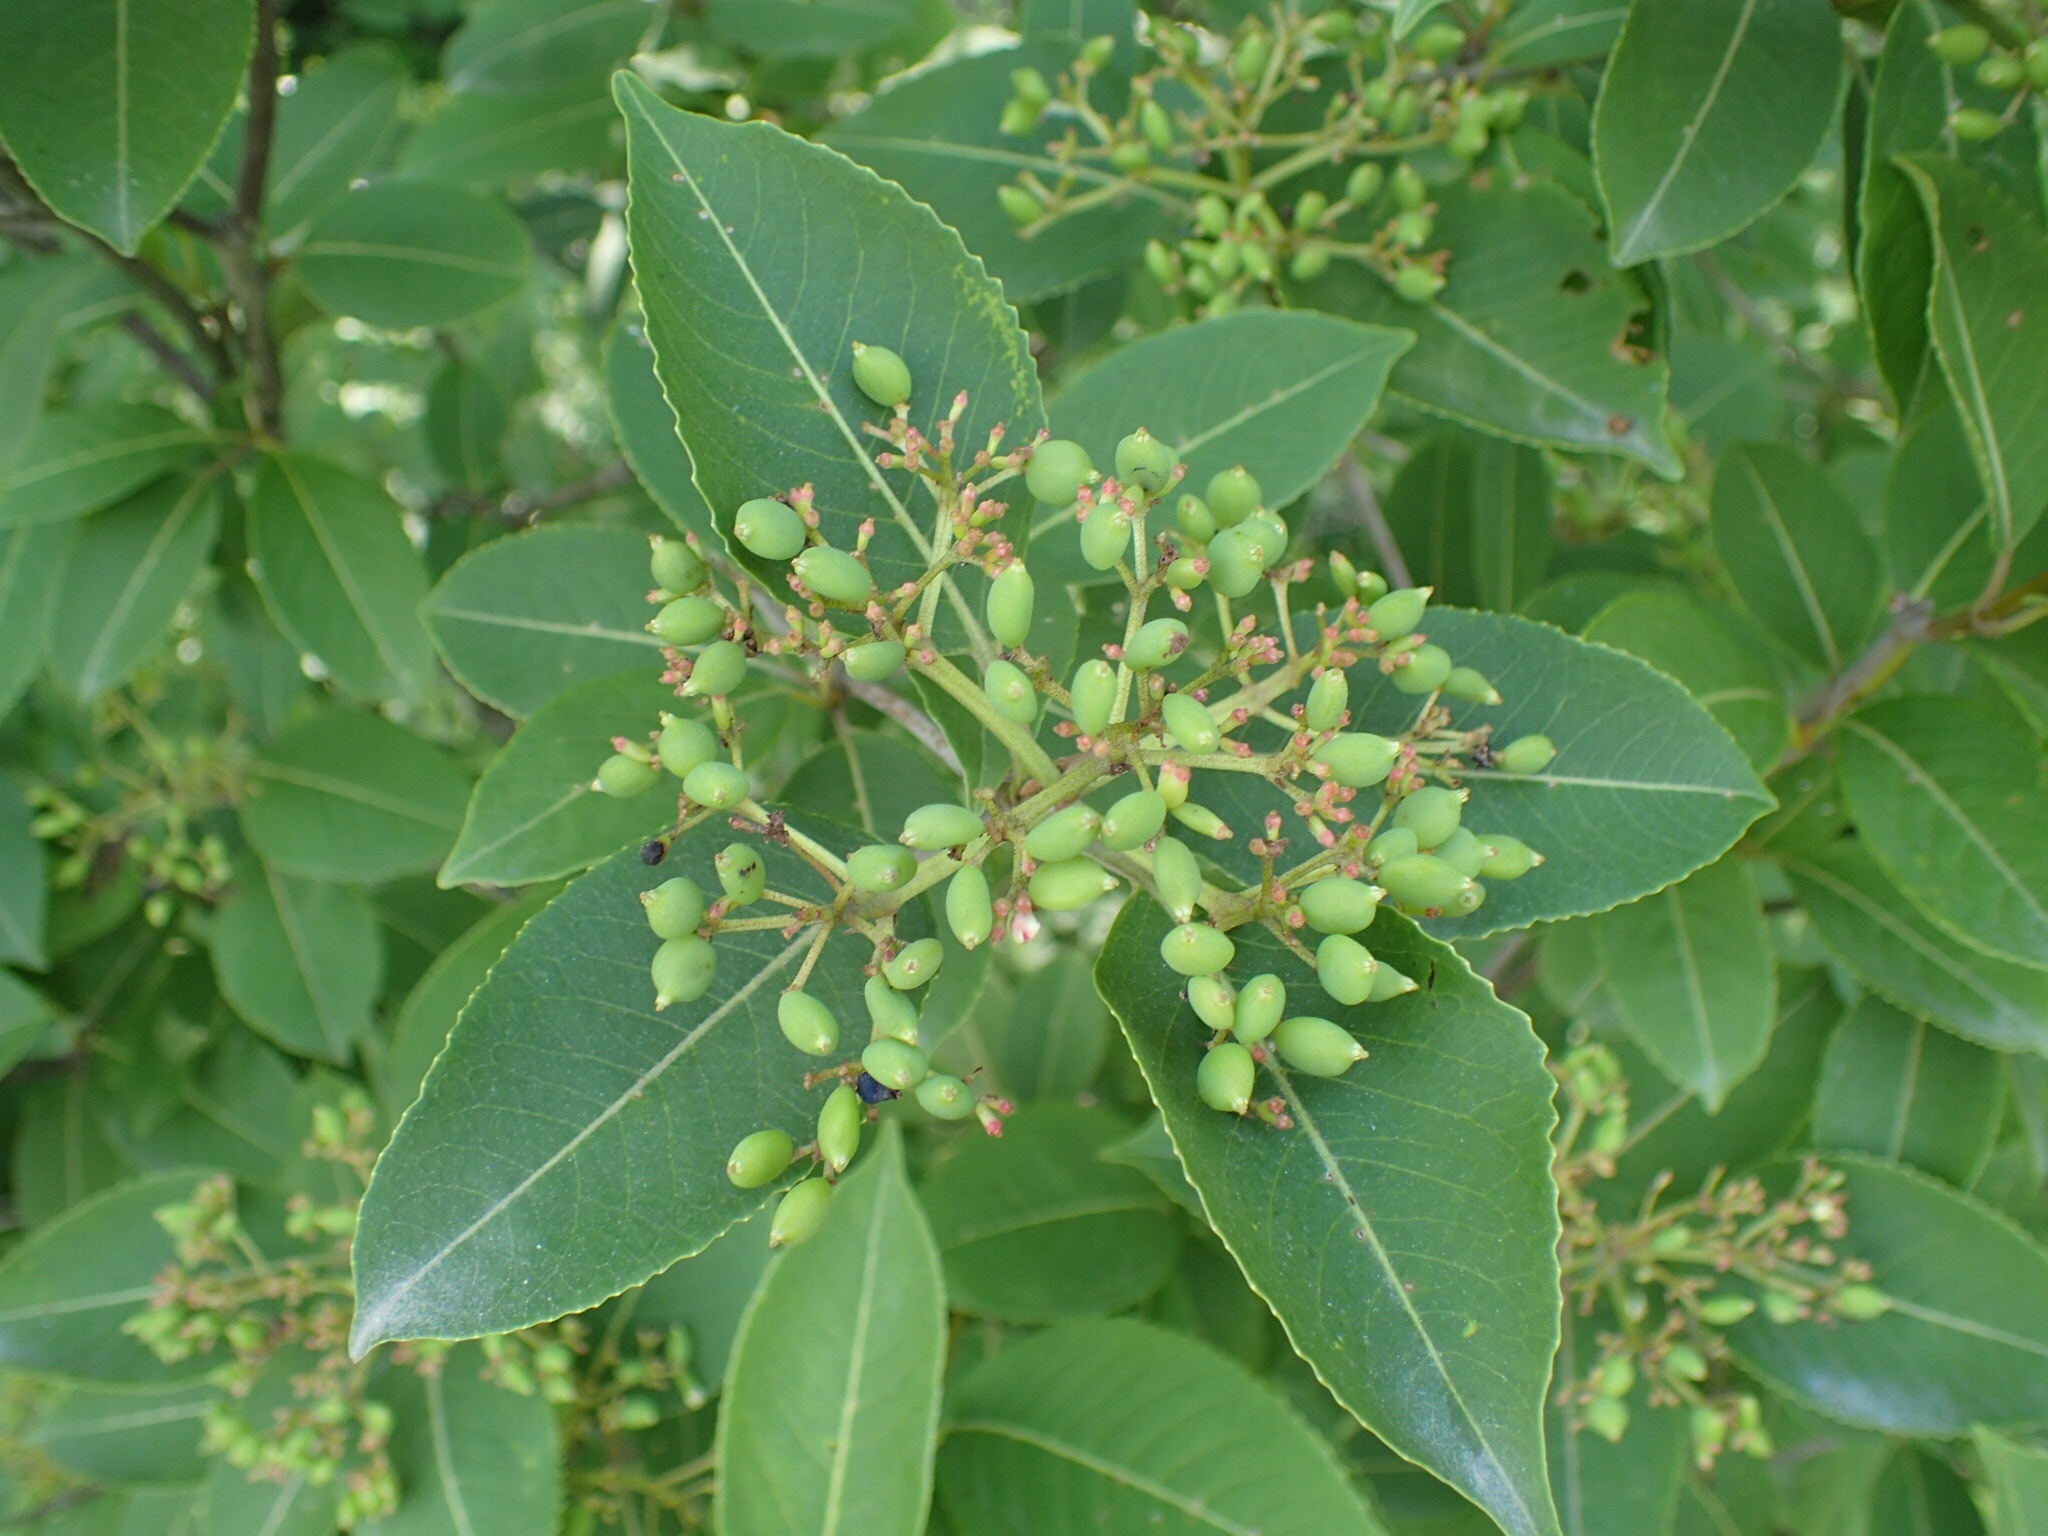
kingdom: Plantae
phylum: Tracheophyta
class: Magnoliopsida
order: Dipsacales
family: Viburnaceae
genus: Viburnum
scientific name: Viburnum cassinoides
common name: Swamp haw
